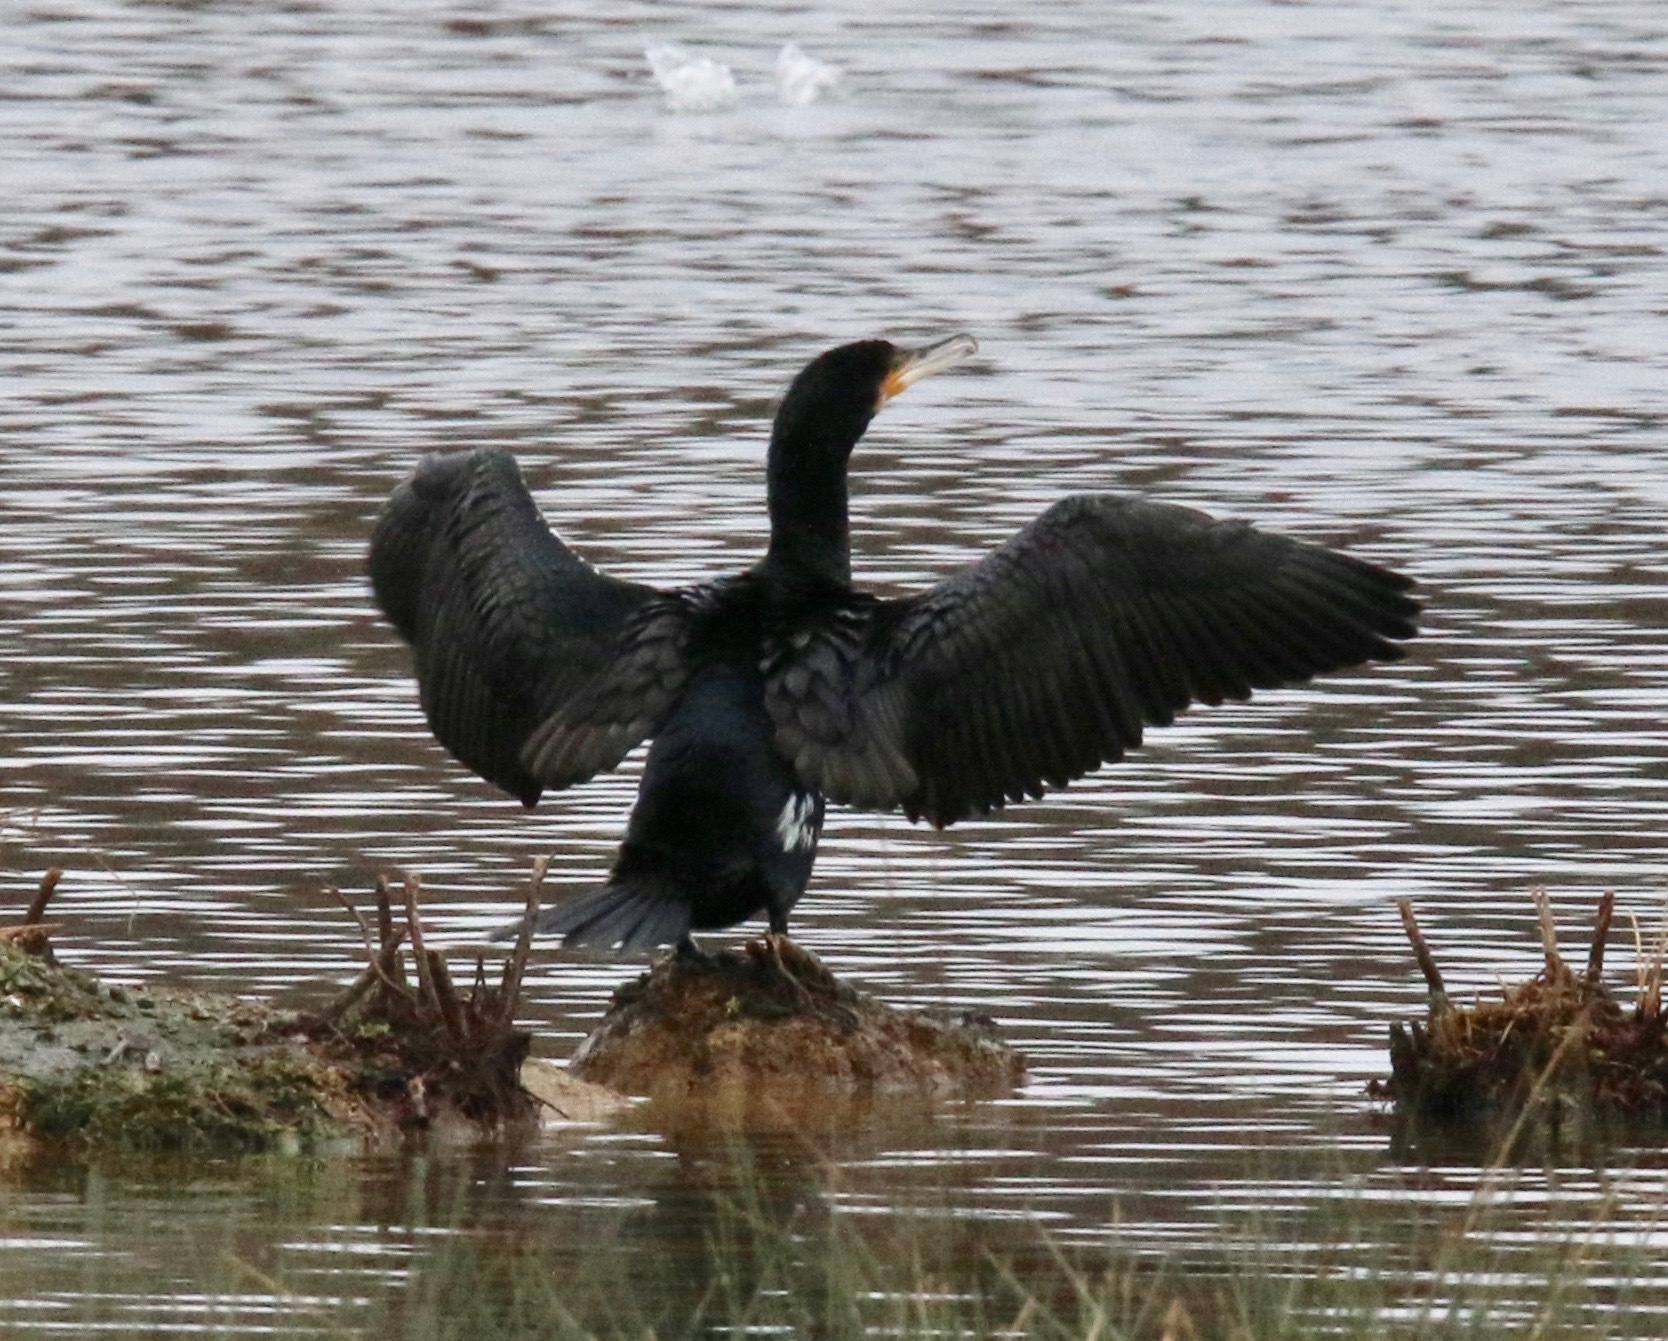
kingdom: Animalia
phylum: Chordata
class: Aves
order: Suliformes
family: Phalacrocoracidae
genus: Phalacrocorax
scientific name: Phalacrocorax carbo
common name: Great cormorant
